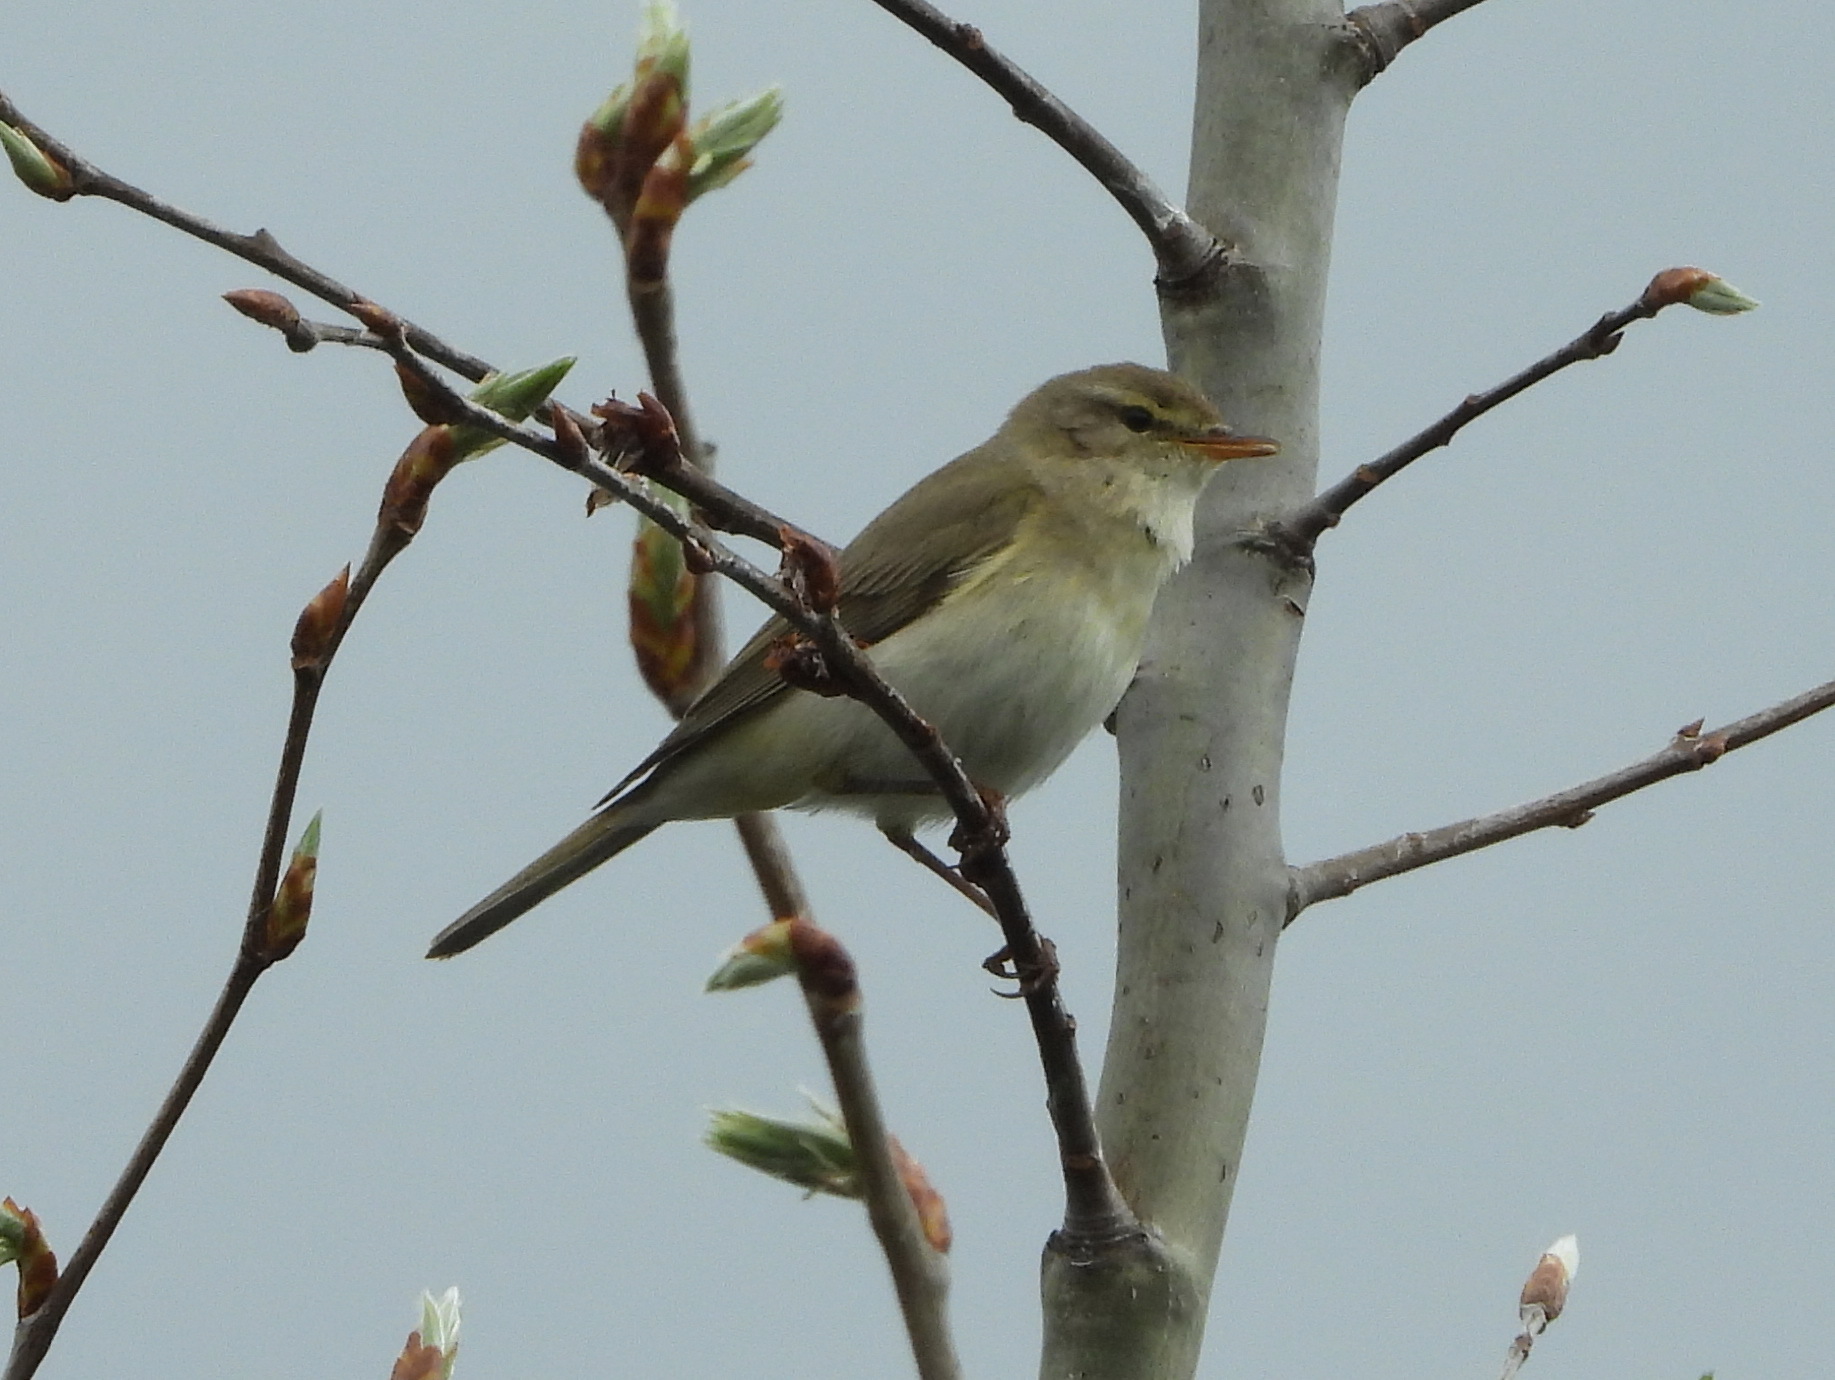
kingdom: Animalia
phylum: Chordata
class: Aves
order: Passeriformes
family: Phylloscopidae
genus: Phylloscopus
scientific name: Phylloscopus trochilus
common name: Willow warbler
